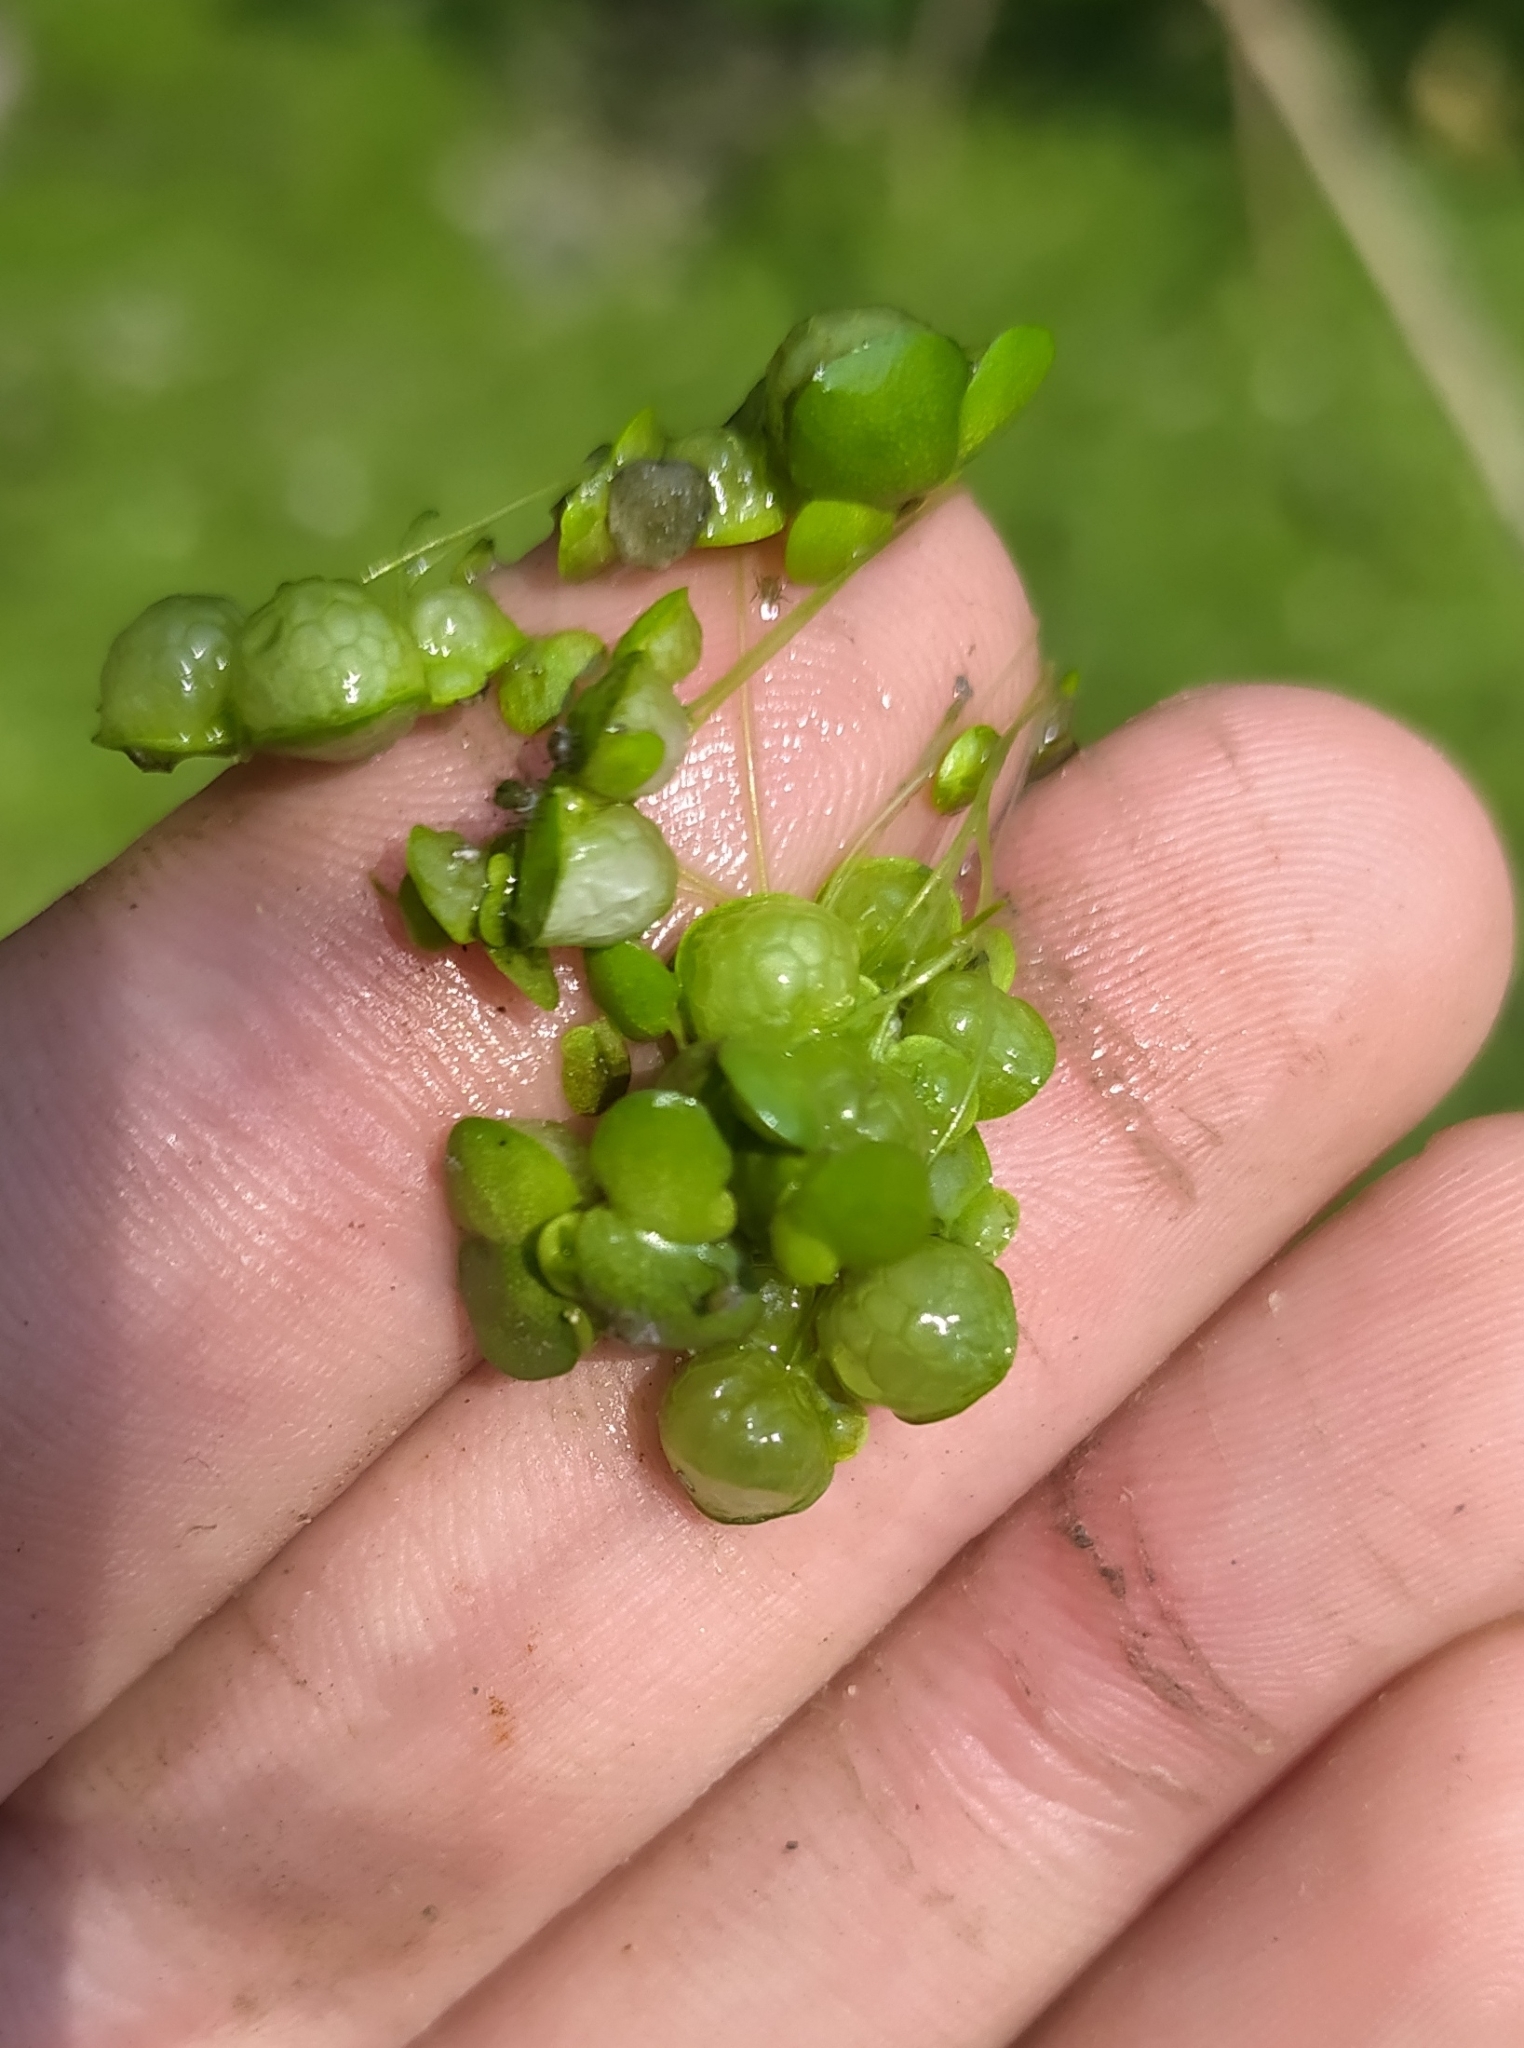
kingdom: Plantae
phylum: Tracheophyta
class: Liliopsida
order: Alismatales
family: Araceae
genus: Lemna
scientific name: Lemna gibba
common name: Fat duckweed
